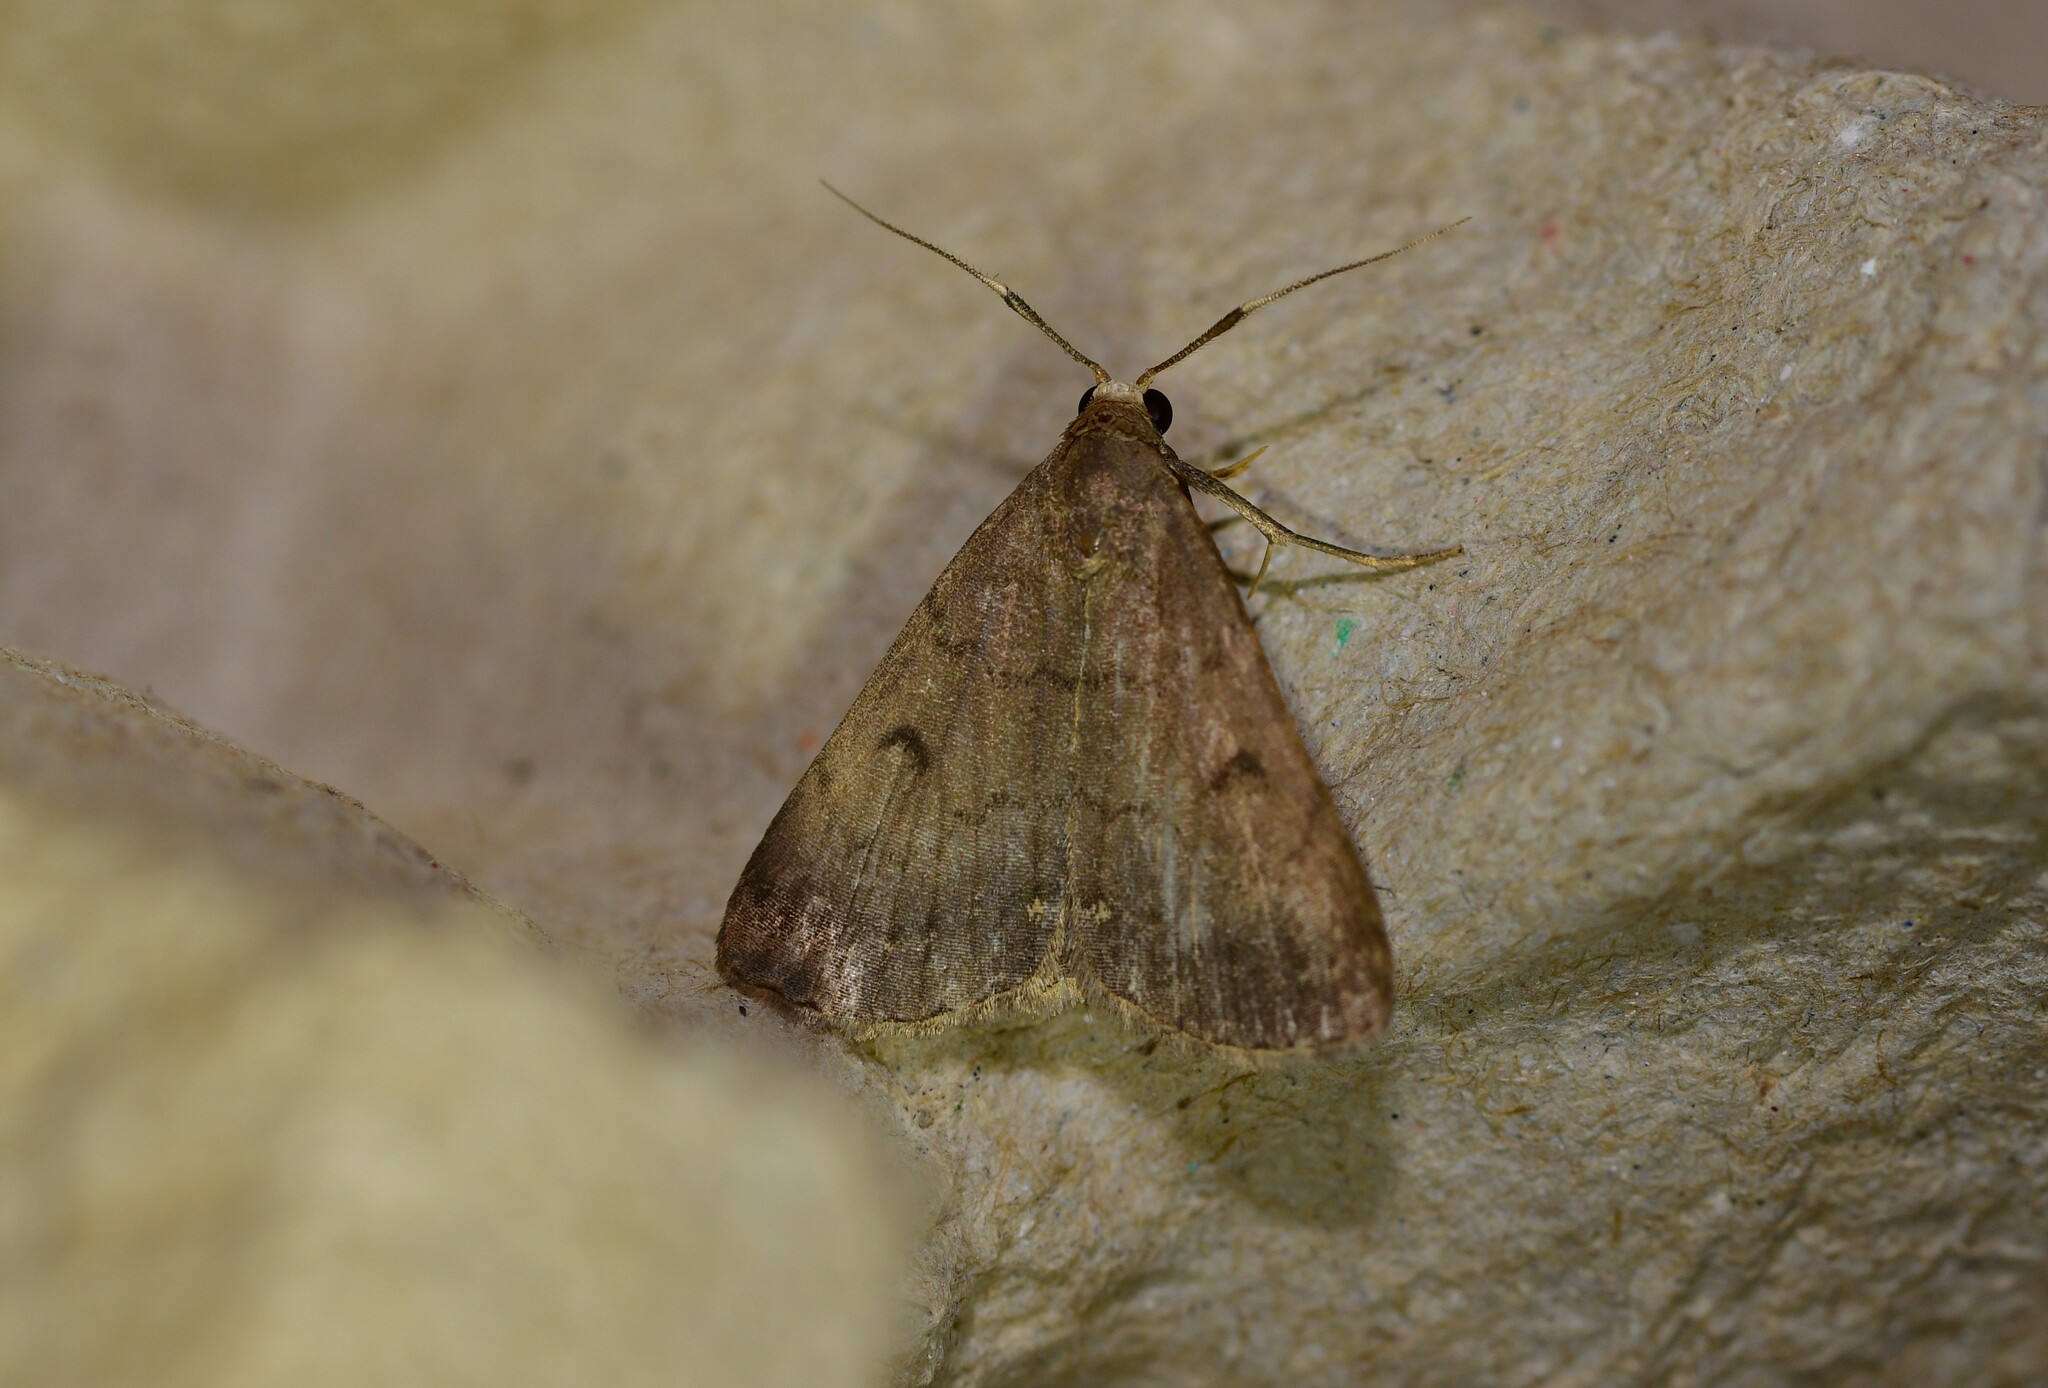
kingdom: Animalia
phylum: Arthropoda
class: Insecta
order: Lepidoptera
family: Erebidae
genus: Nodaria
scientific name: Nodaria nodosalis
